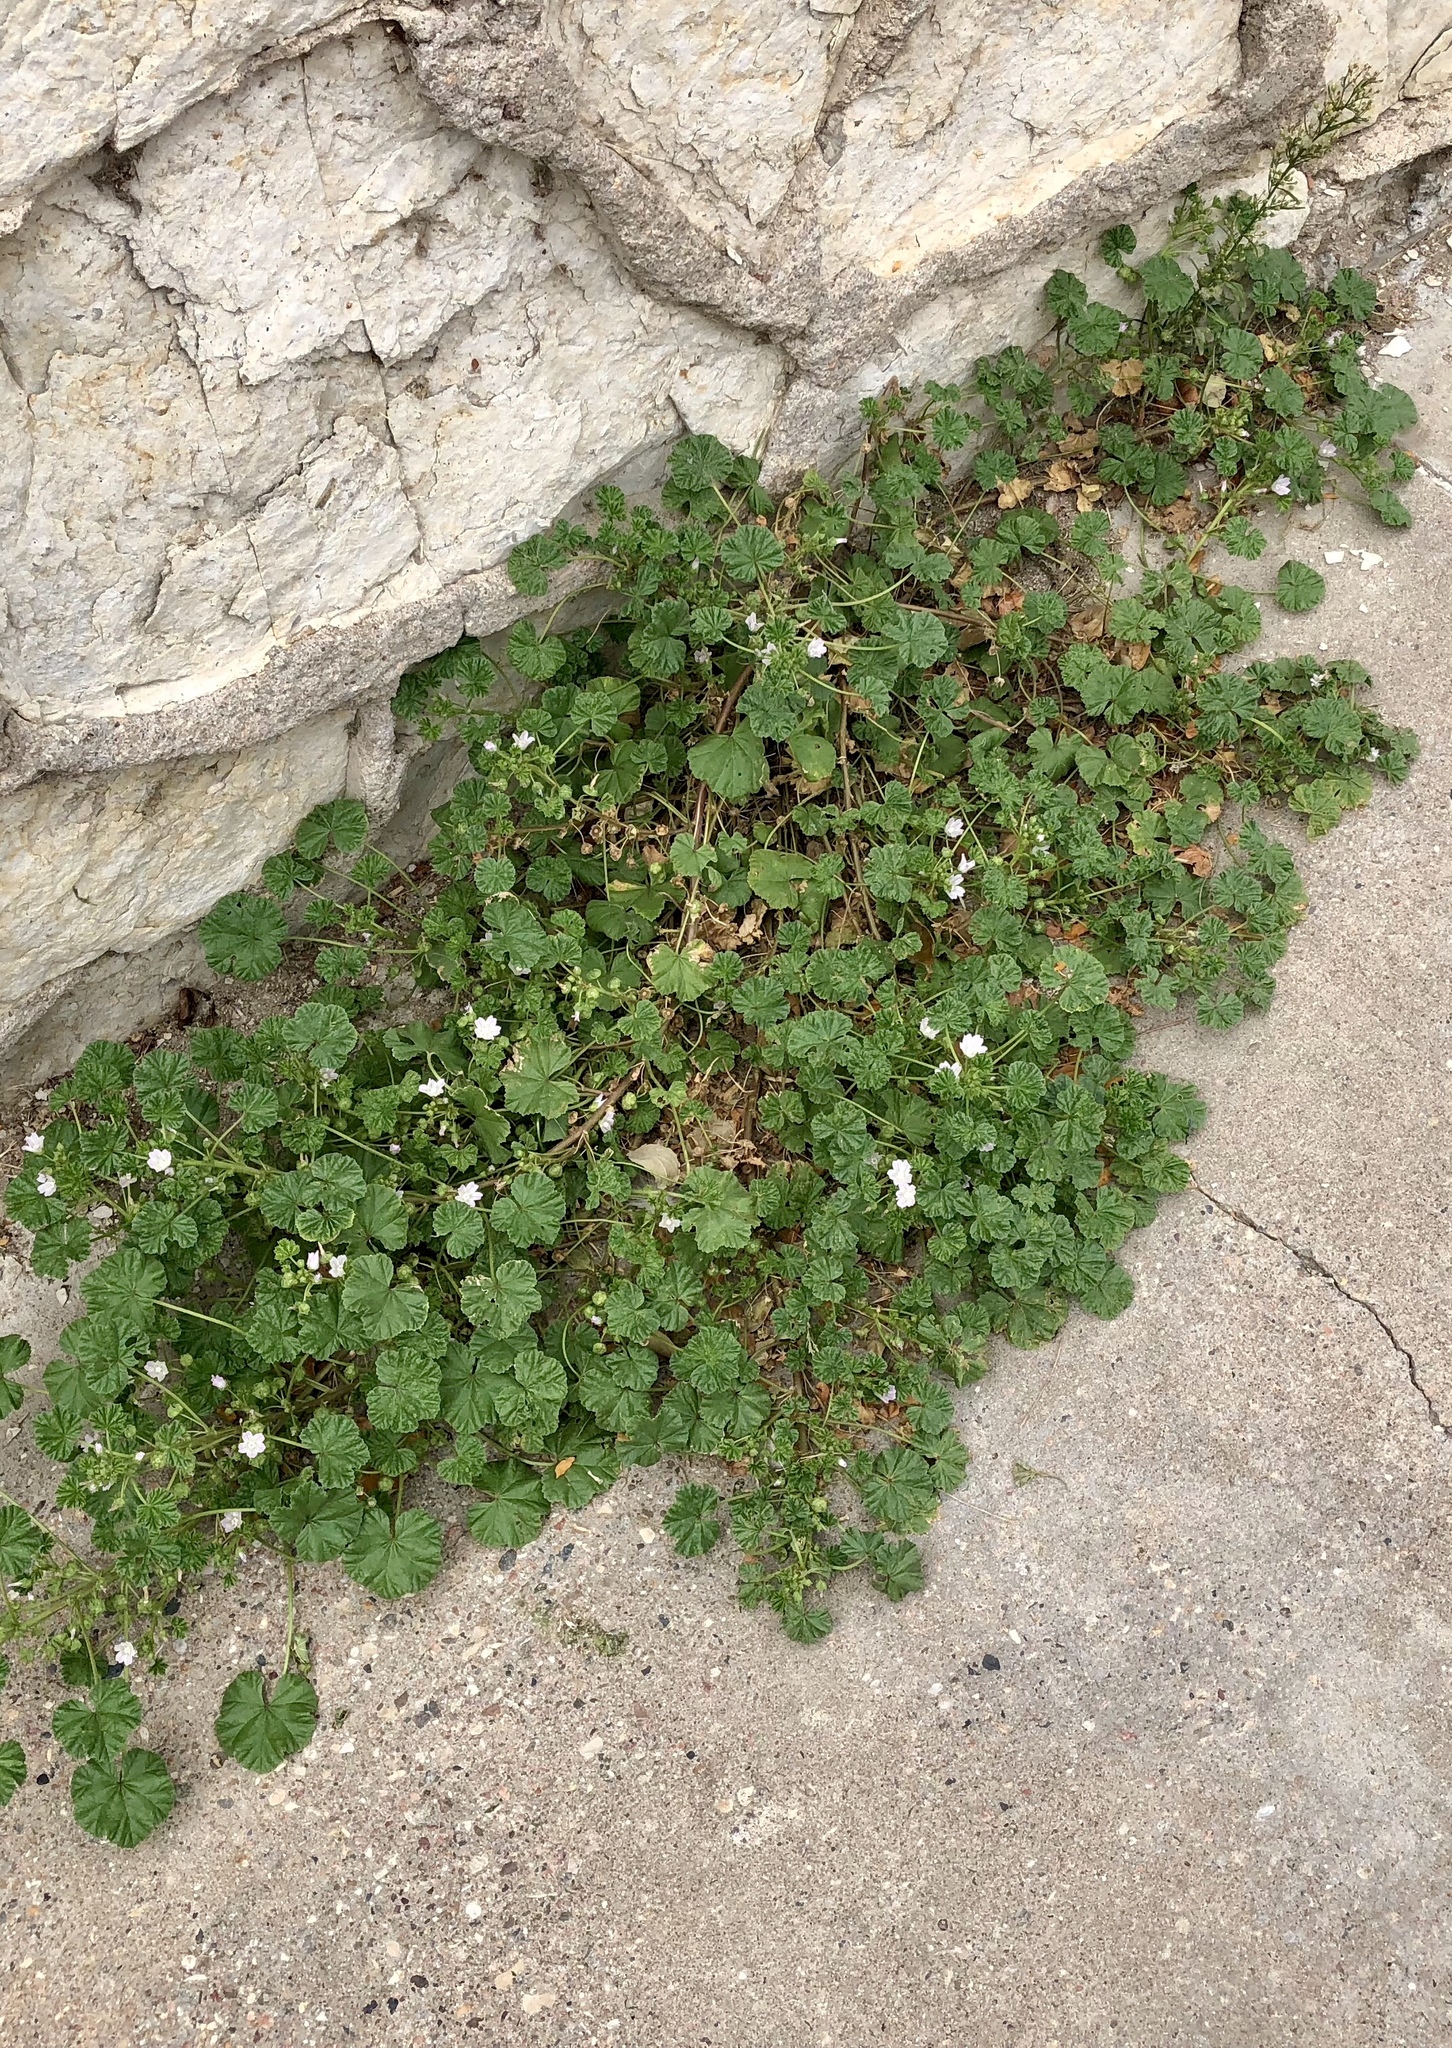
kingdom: Plantae
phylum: Tracheophyta
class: Magnoliopsida
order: Malvales
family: Malvaceae
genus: Malva
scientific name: Malva neglecta
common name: Common mallow
